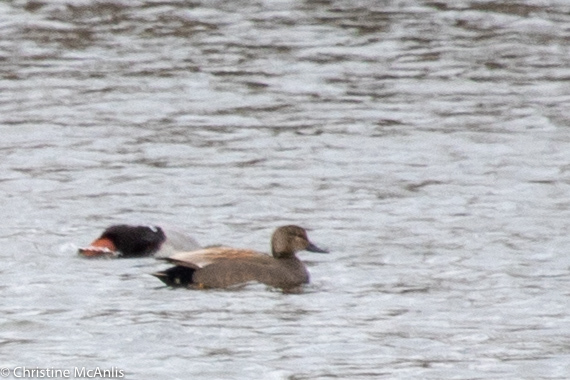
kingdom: Animalia
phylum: Chordata
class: Aves
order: Anseriformes
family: Anatidae
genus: Mareca
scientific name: Mareca strepera
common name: Gadwall
